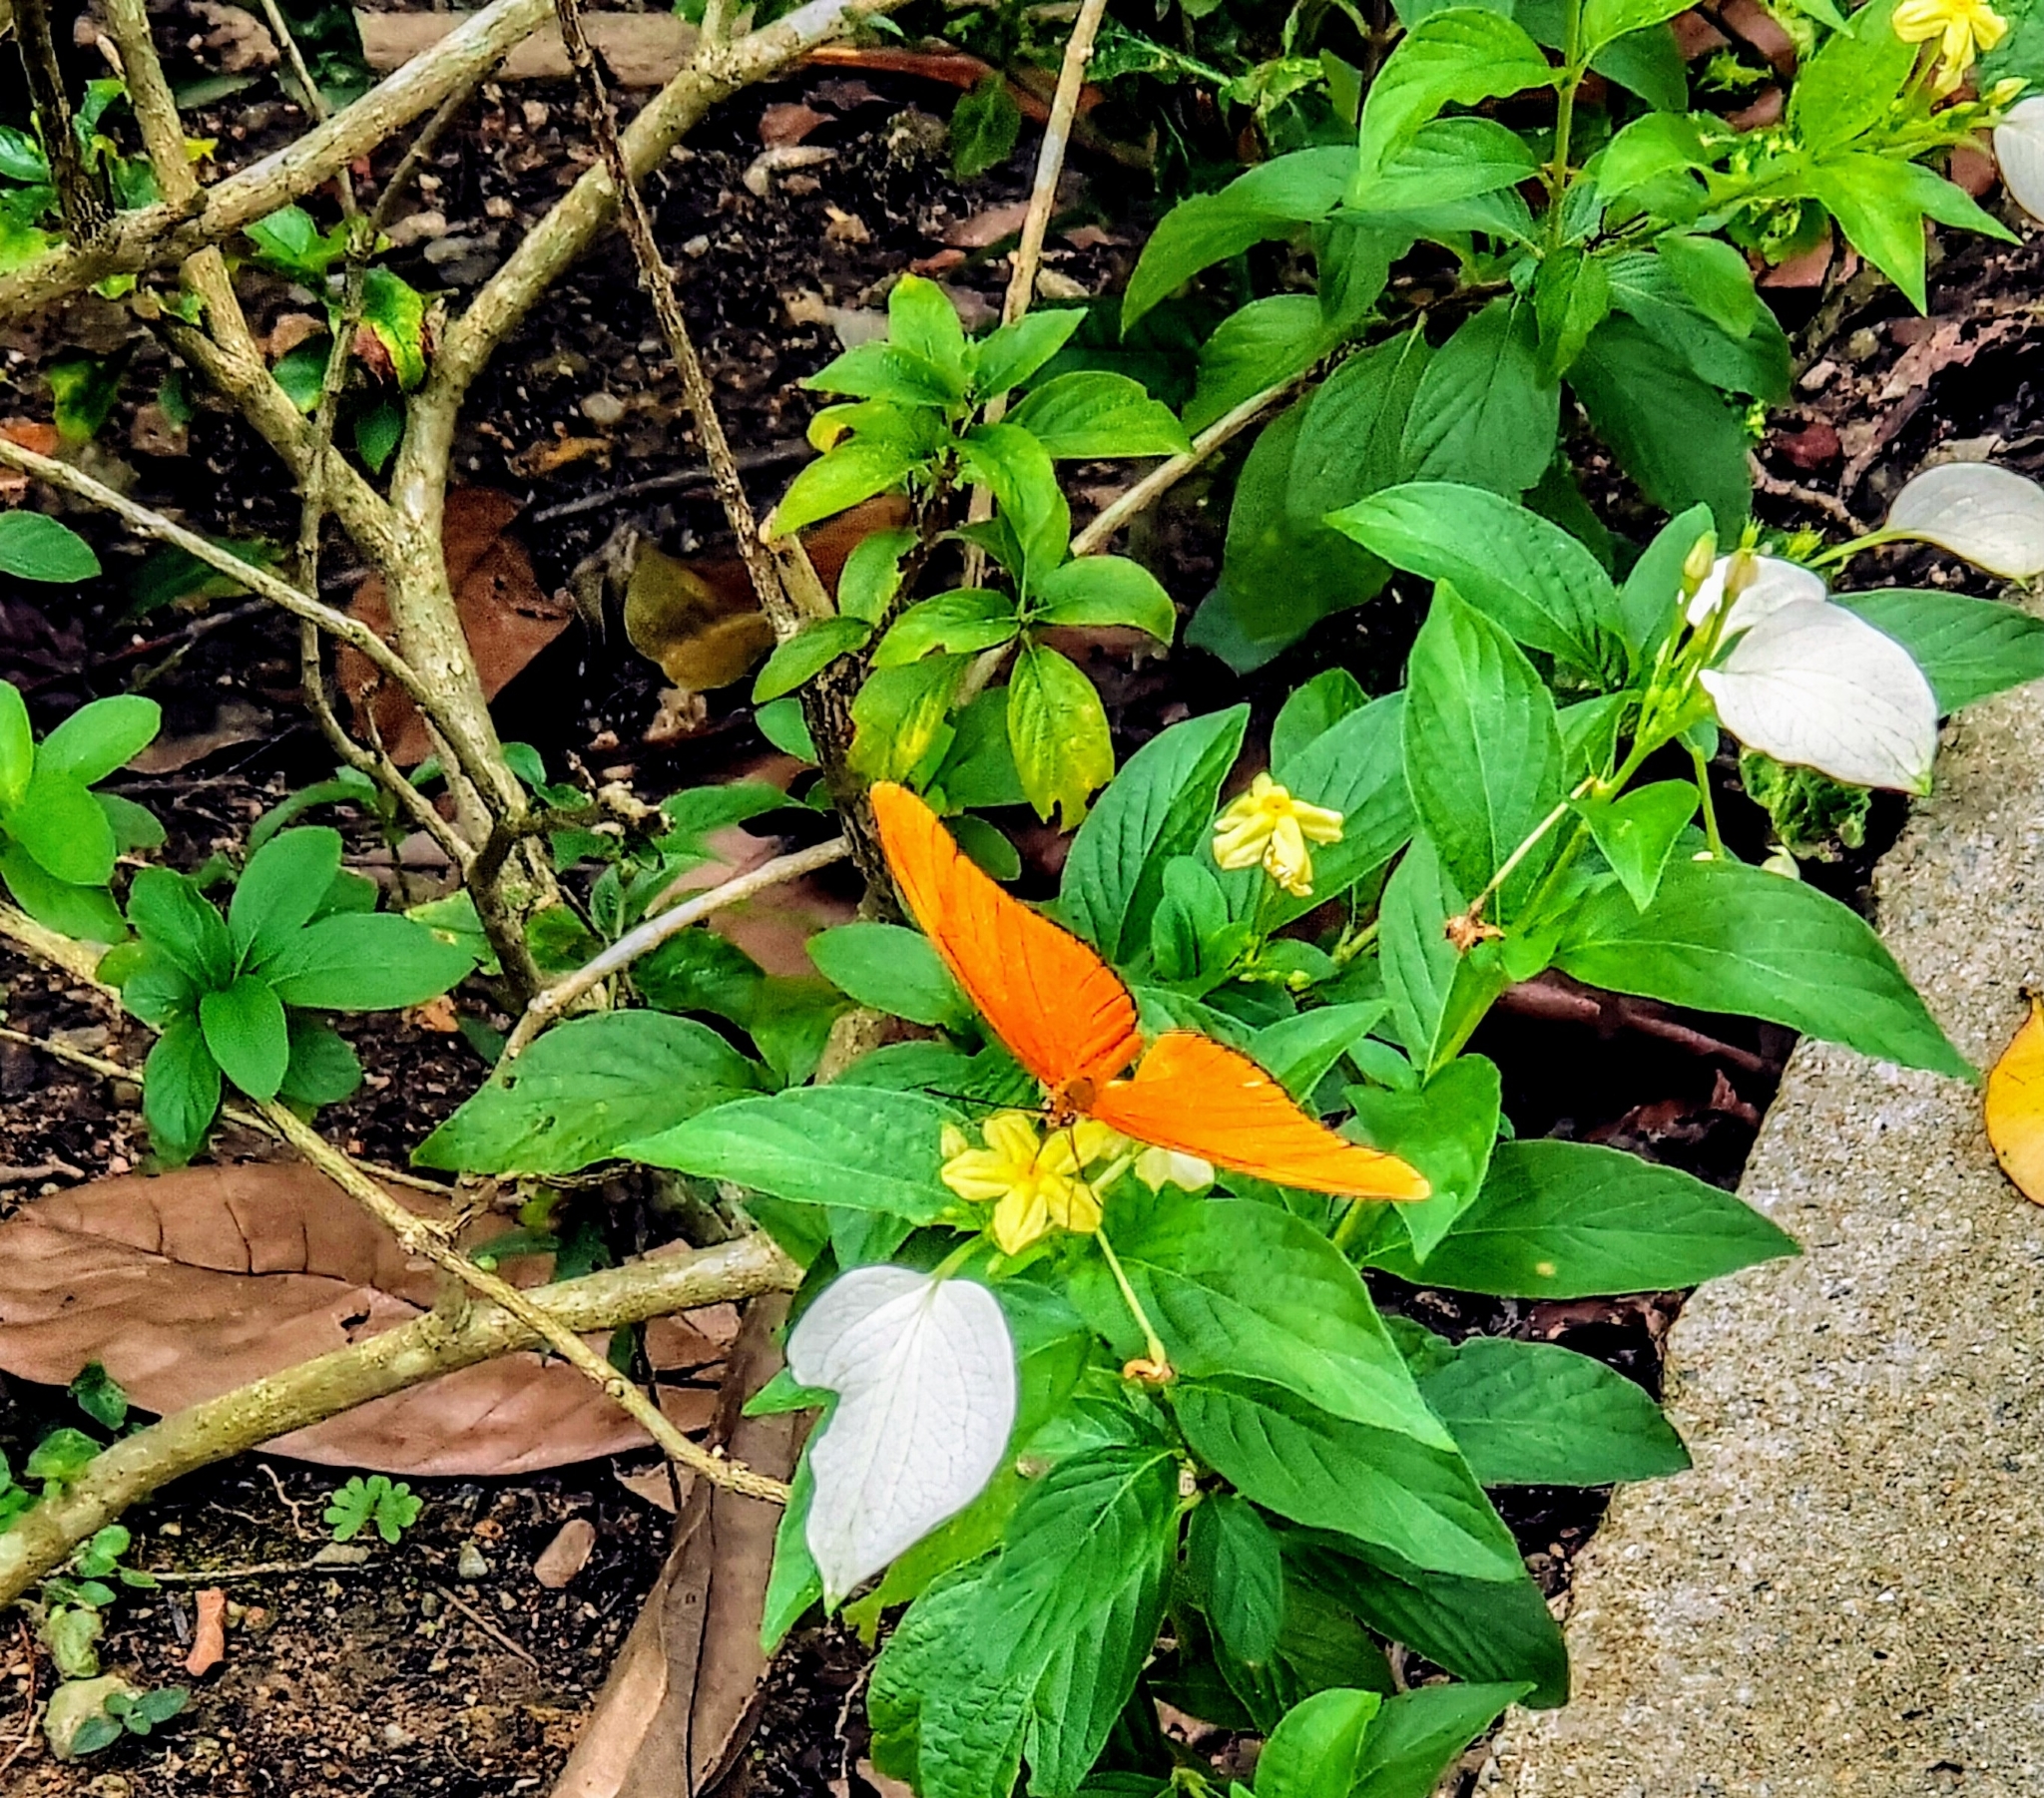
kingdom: Animalia
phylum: Arthropoda
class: Insecta
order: Lepidoptera
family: Nymphalidae
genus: Dryas
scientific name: Dryas iulia
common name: Flambeau
